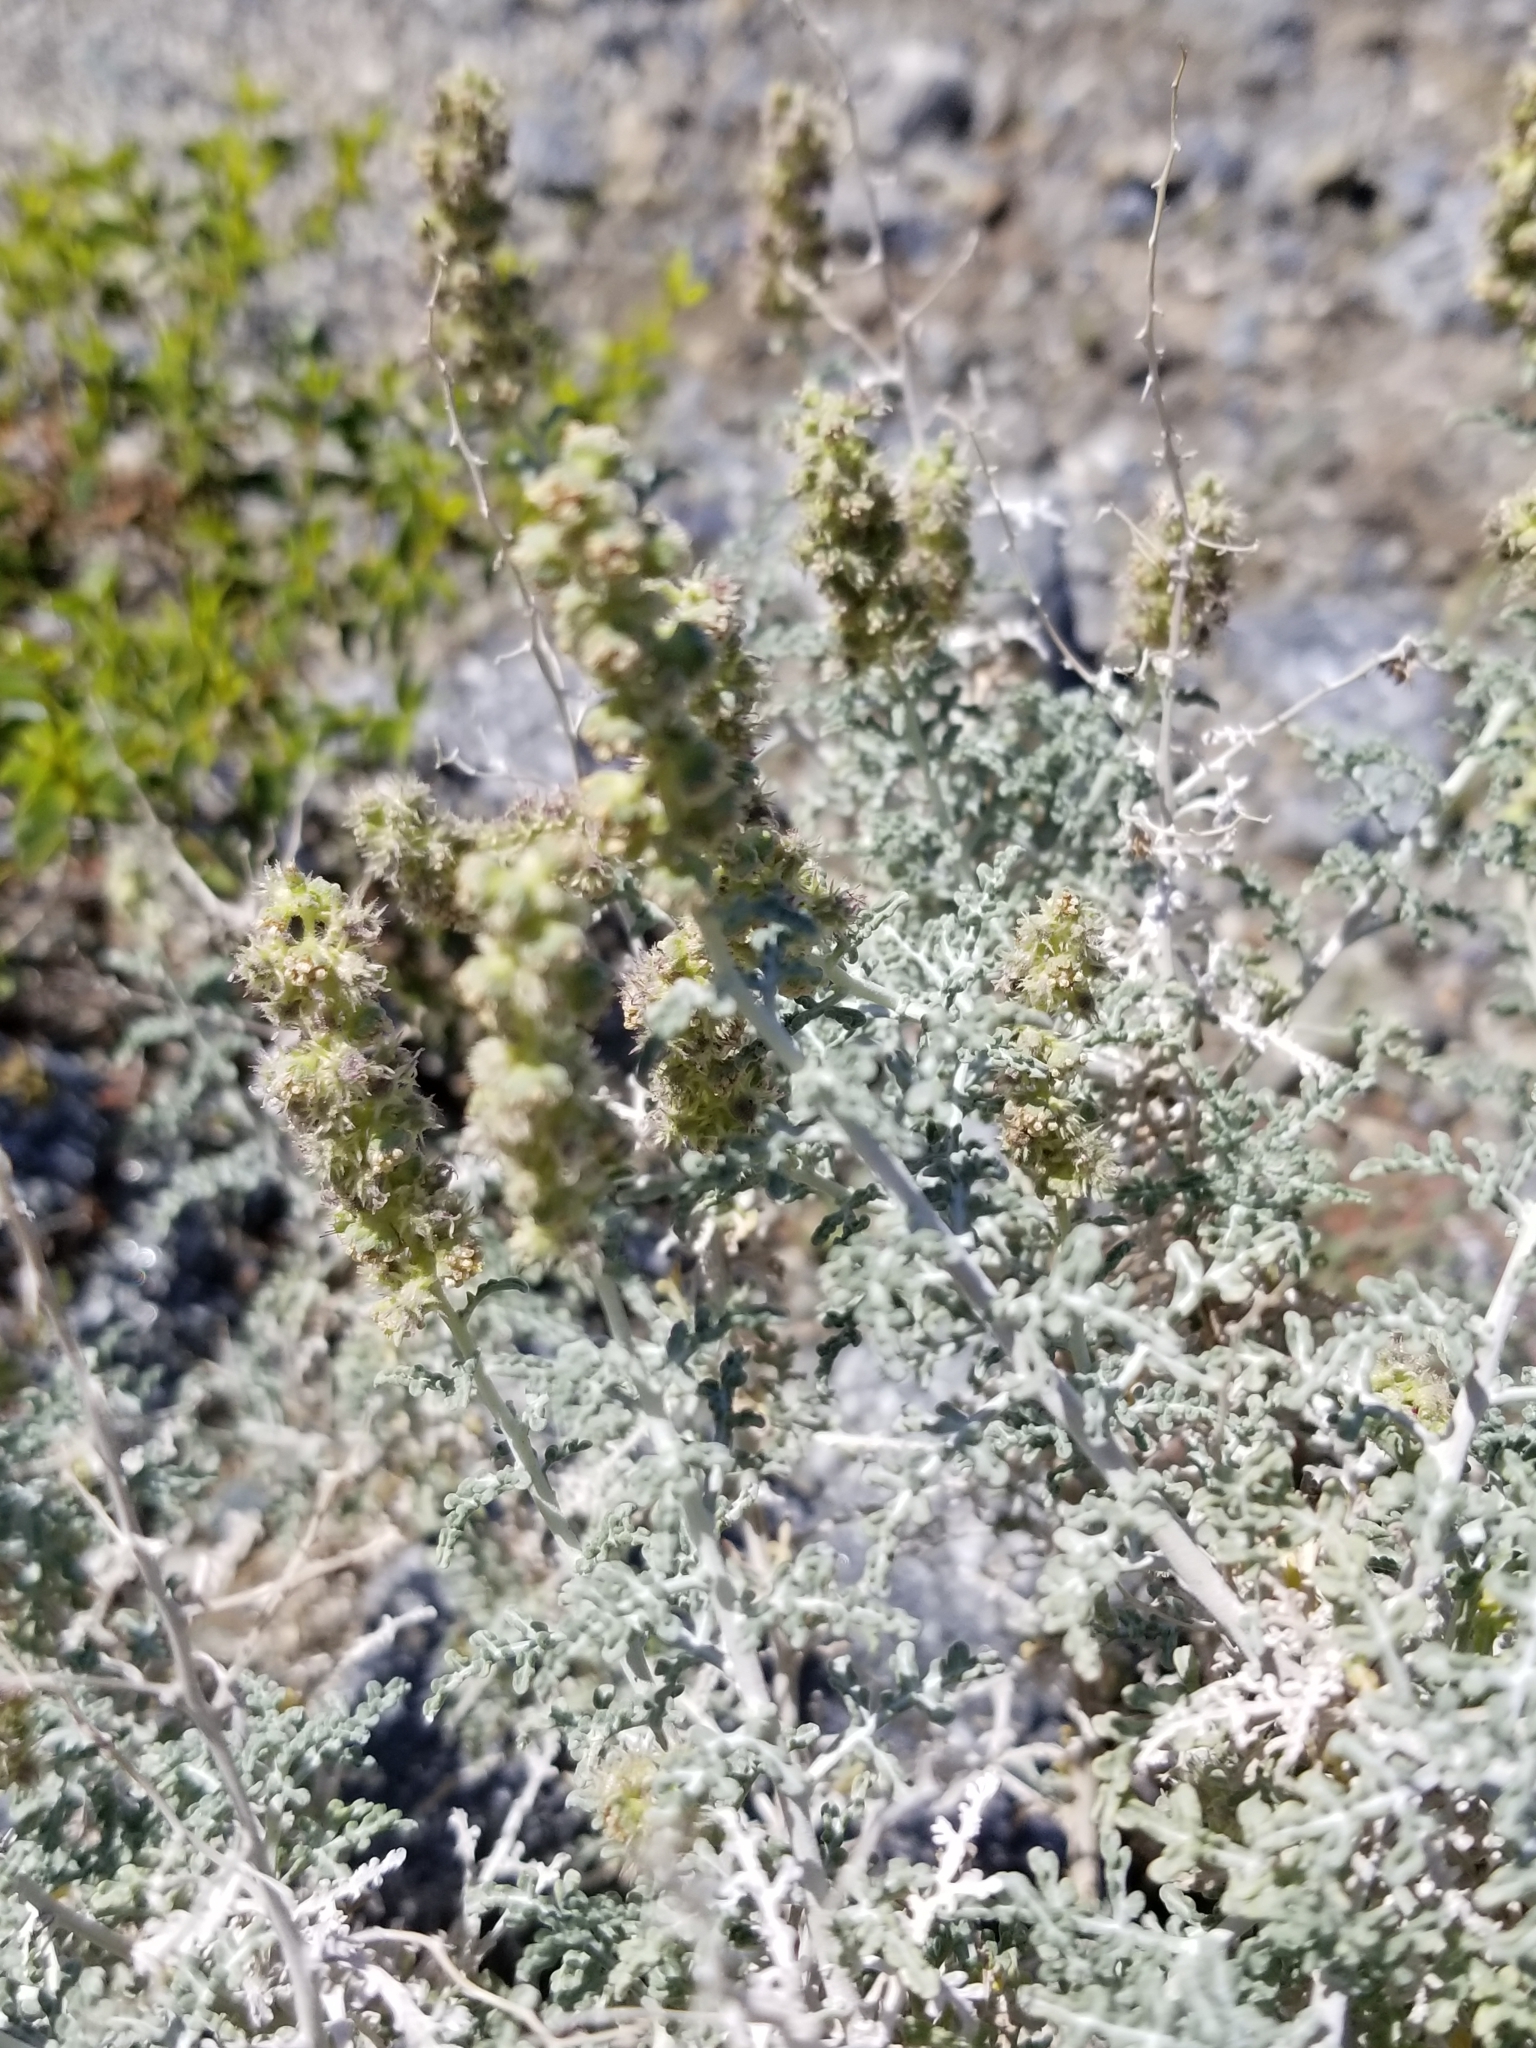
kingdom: Plantae
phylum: Tracheophyta
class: Magnoliopsida
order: Asterales
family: Asteraceae
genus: Ambrosia
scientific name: Ambrosia dumosa
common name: Bur-sage
